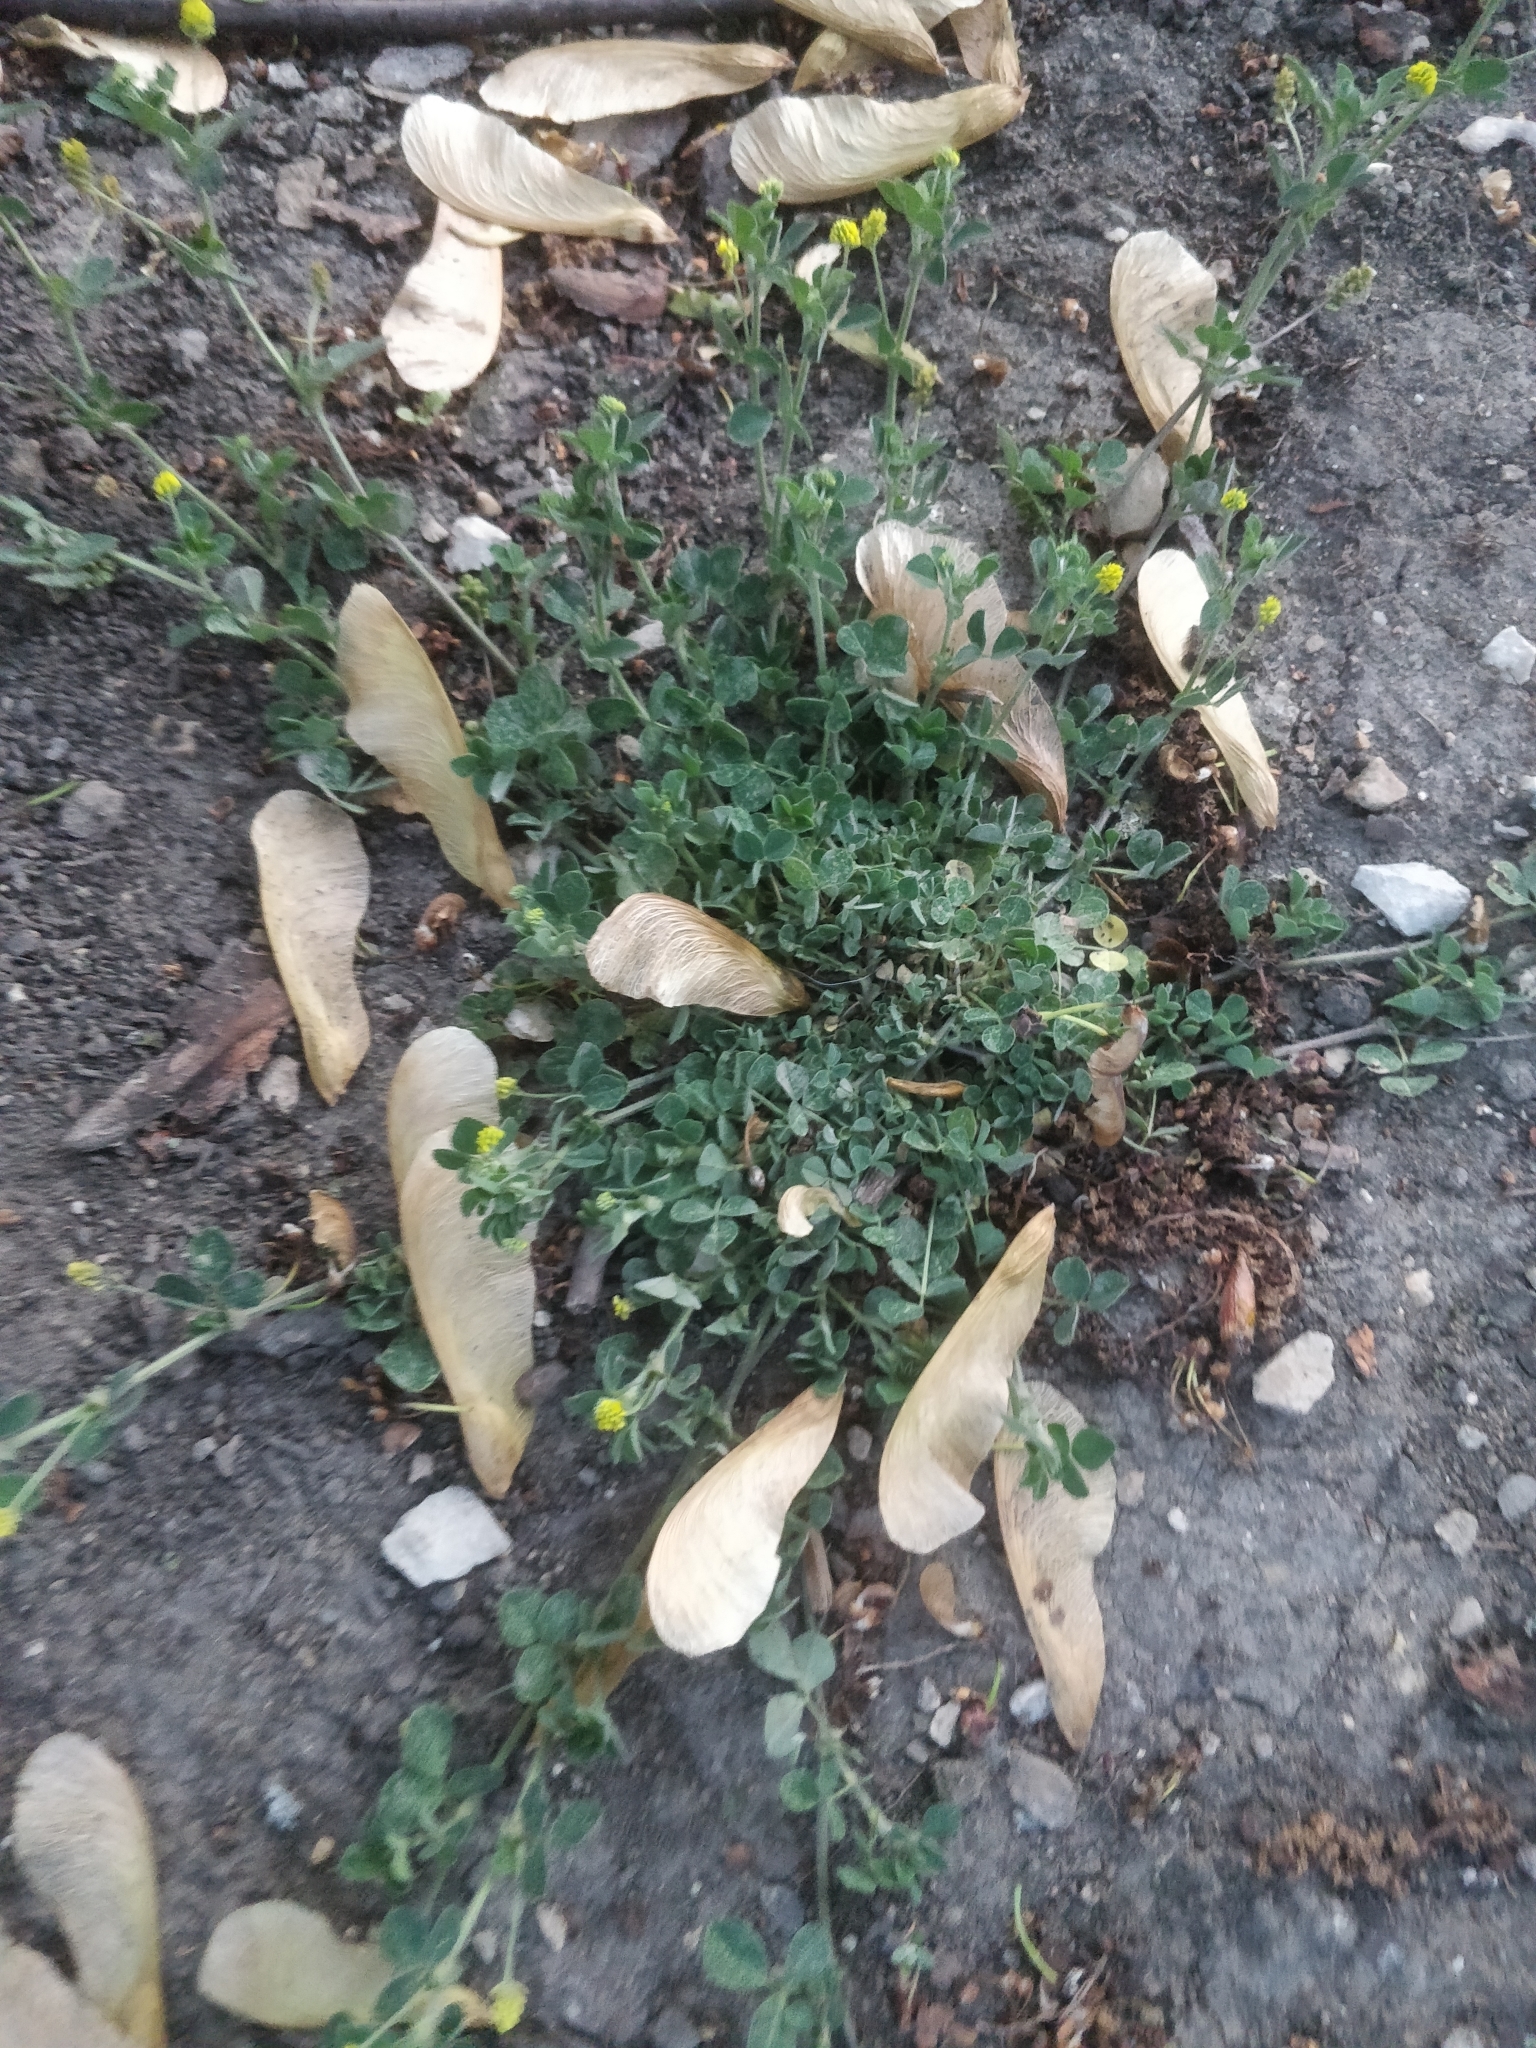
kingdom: Plantae
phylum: Tracheophyta
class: Magnoliopsida
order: Fabales
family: Fabaceae
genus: Medicago
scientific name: Medicago lupulina
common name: Black medick
